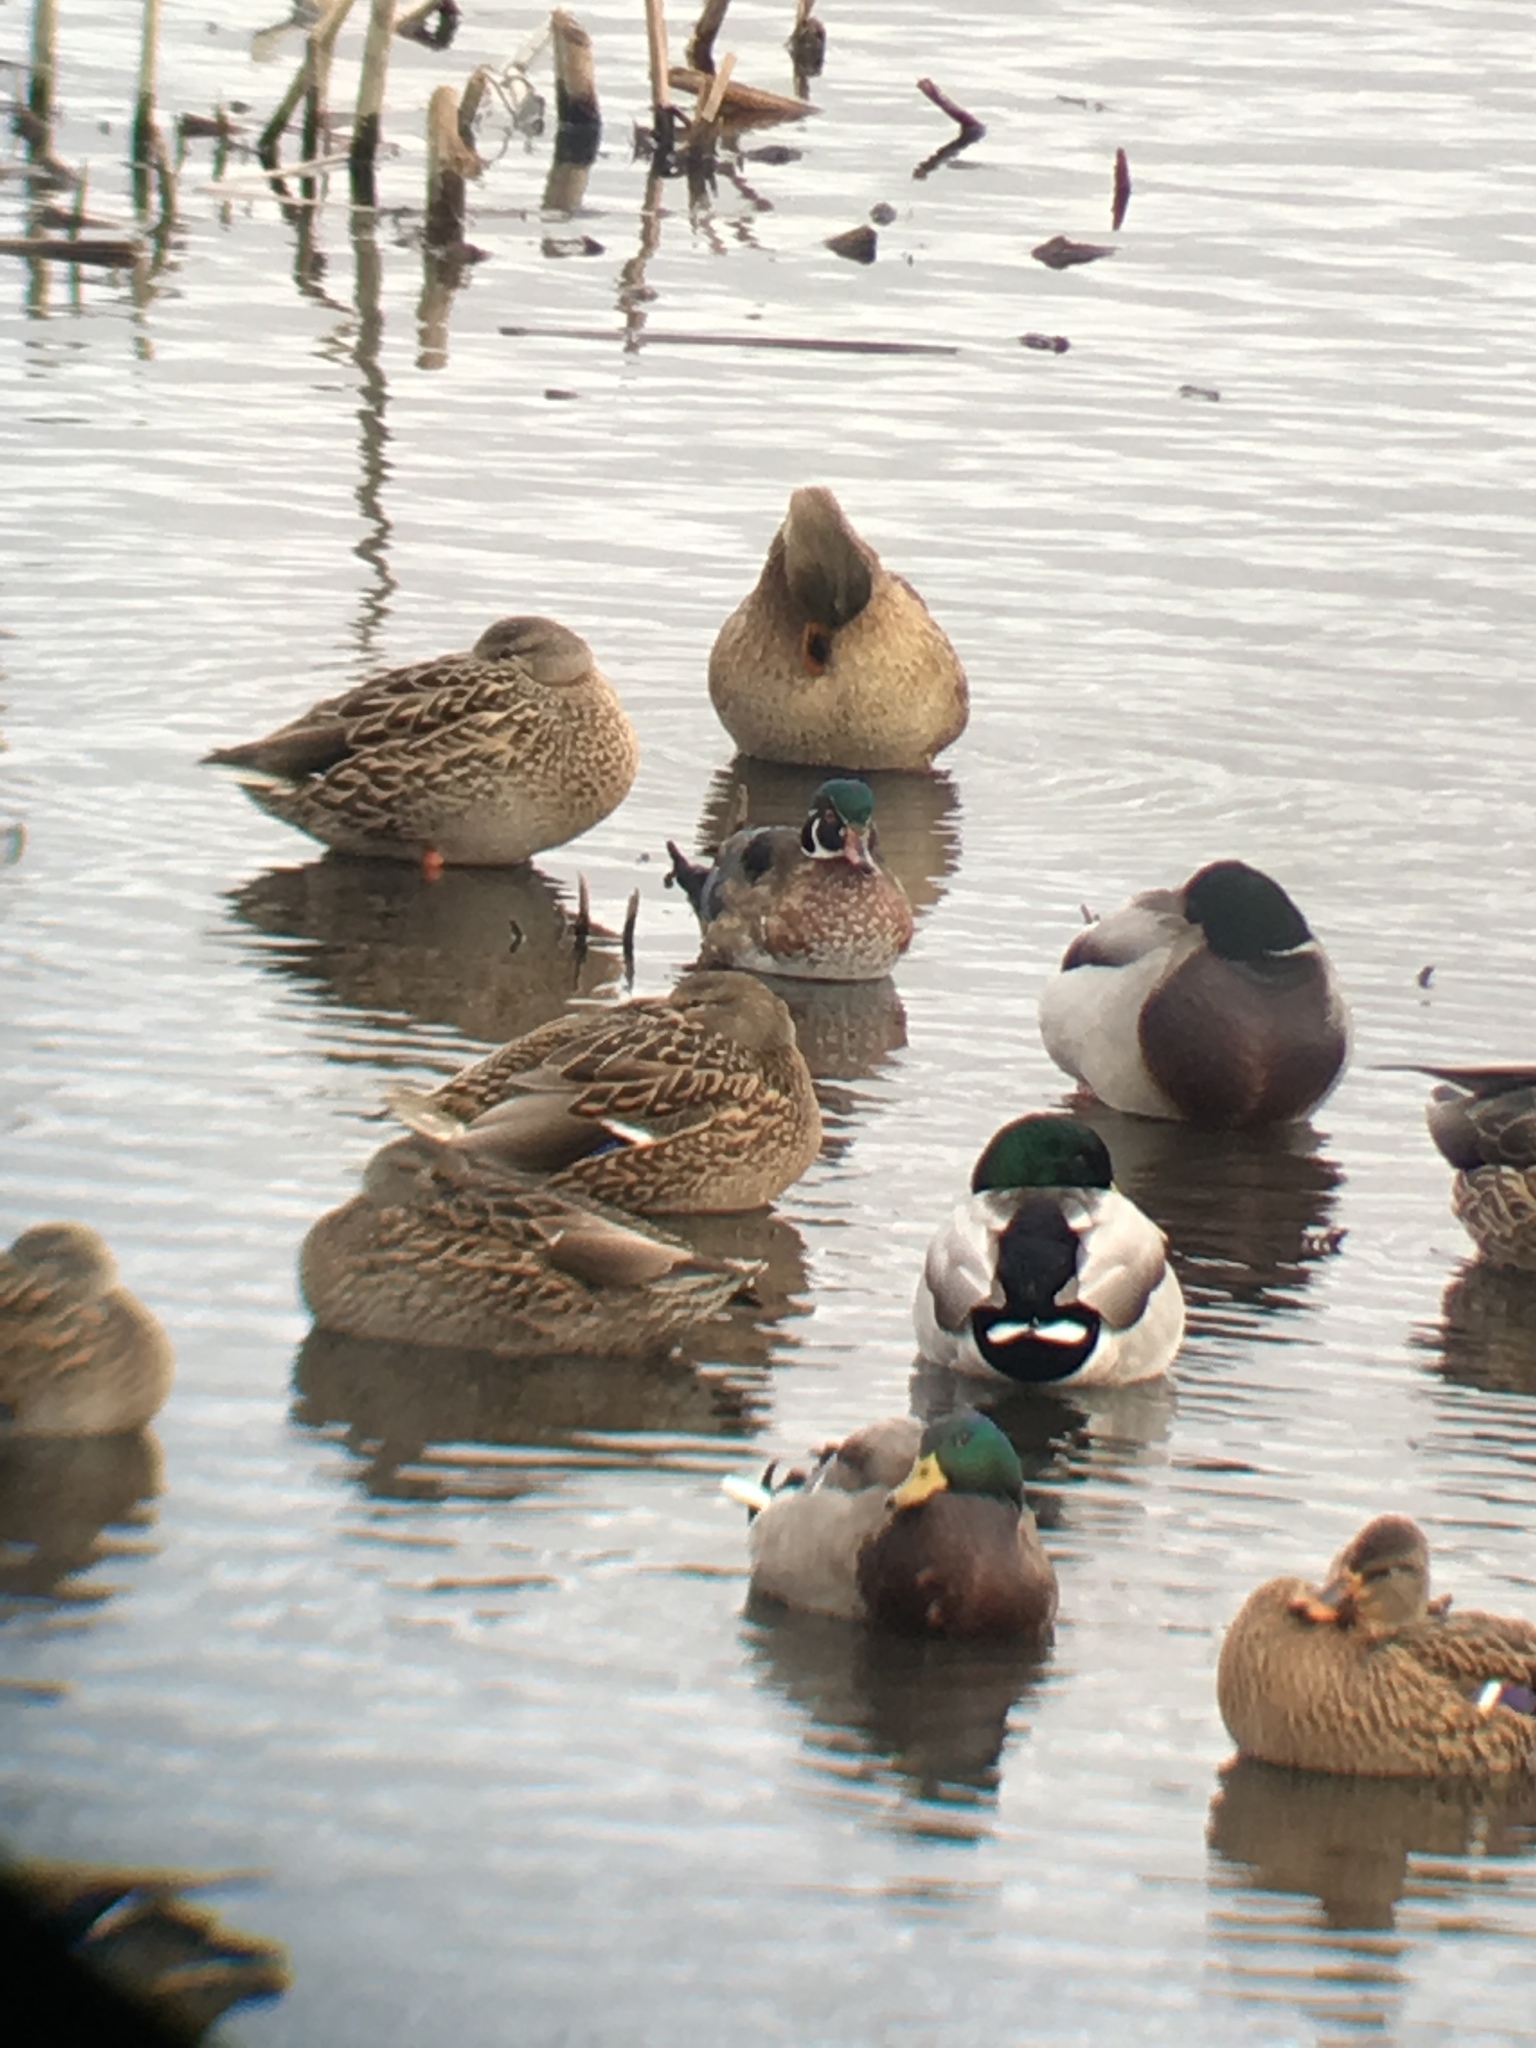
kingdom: Animalia
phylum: Chordata
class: Aves
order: Anseriformes
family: Anatidae
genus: Aix
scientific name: Aix sponsa
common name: Wood duck
